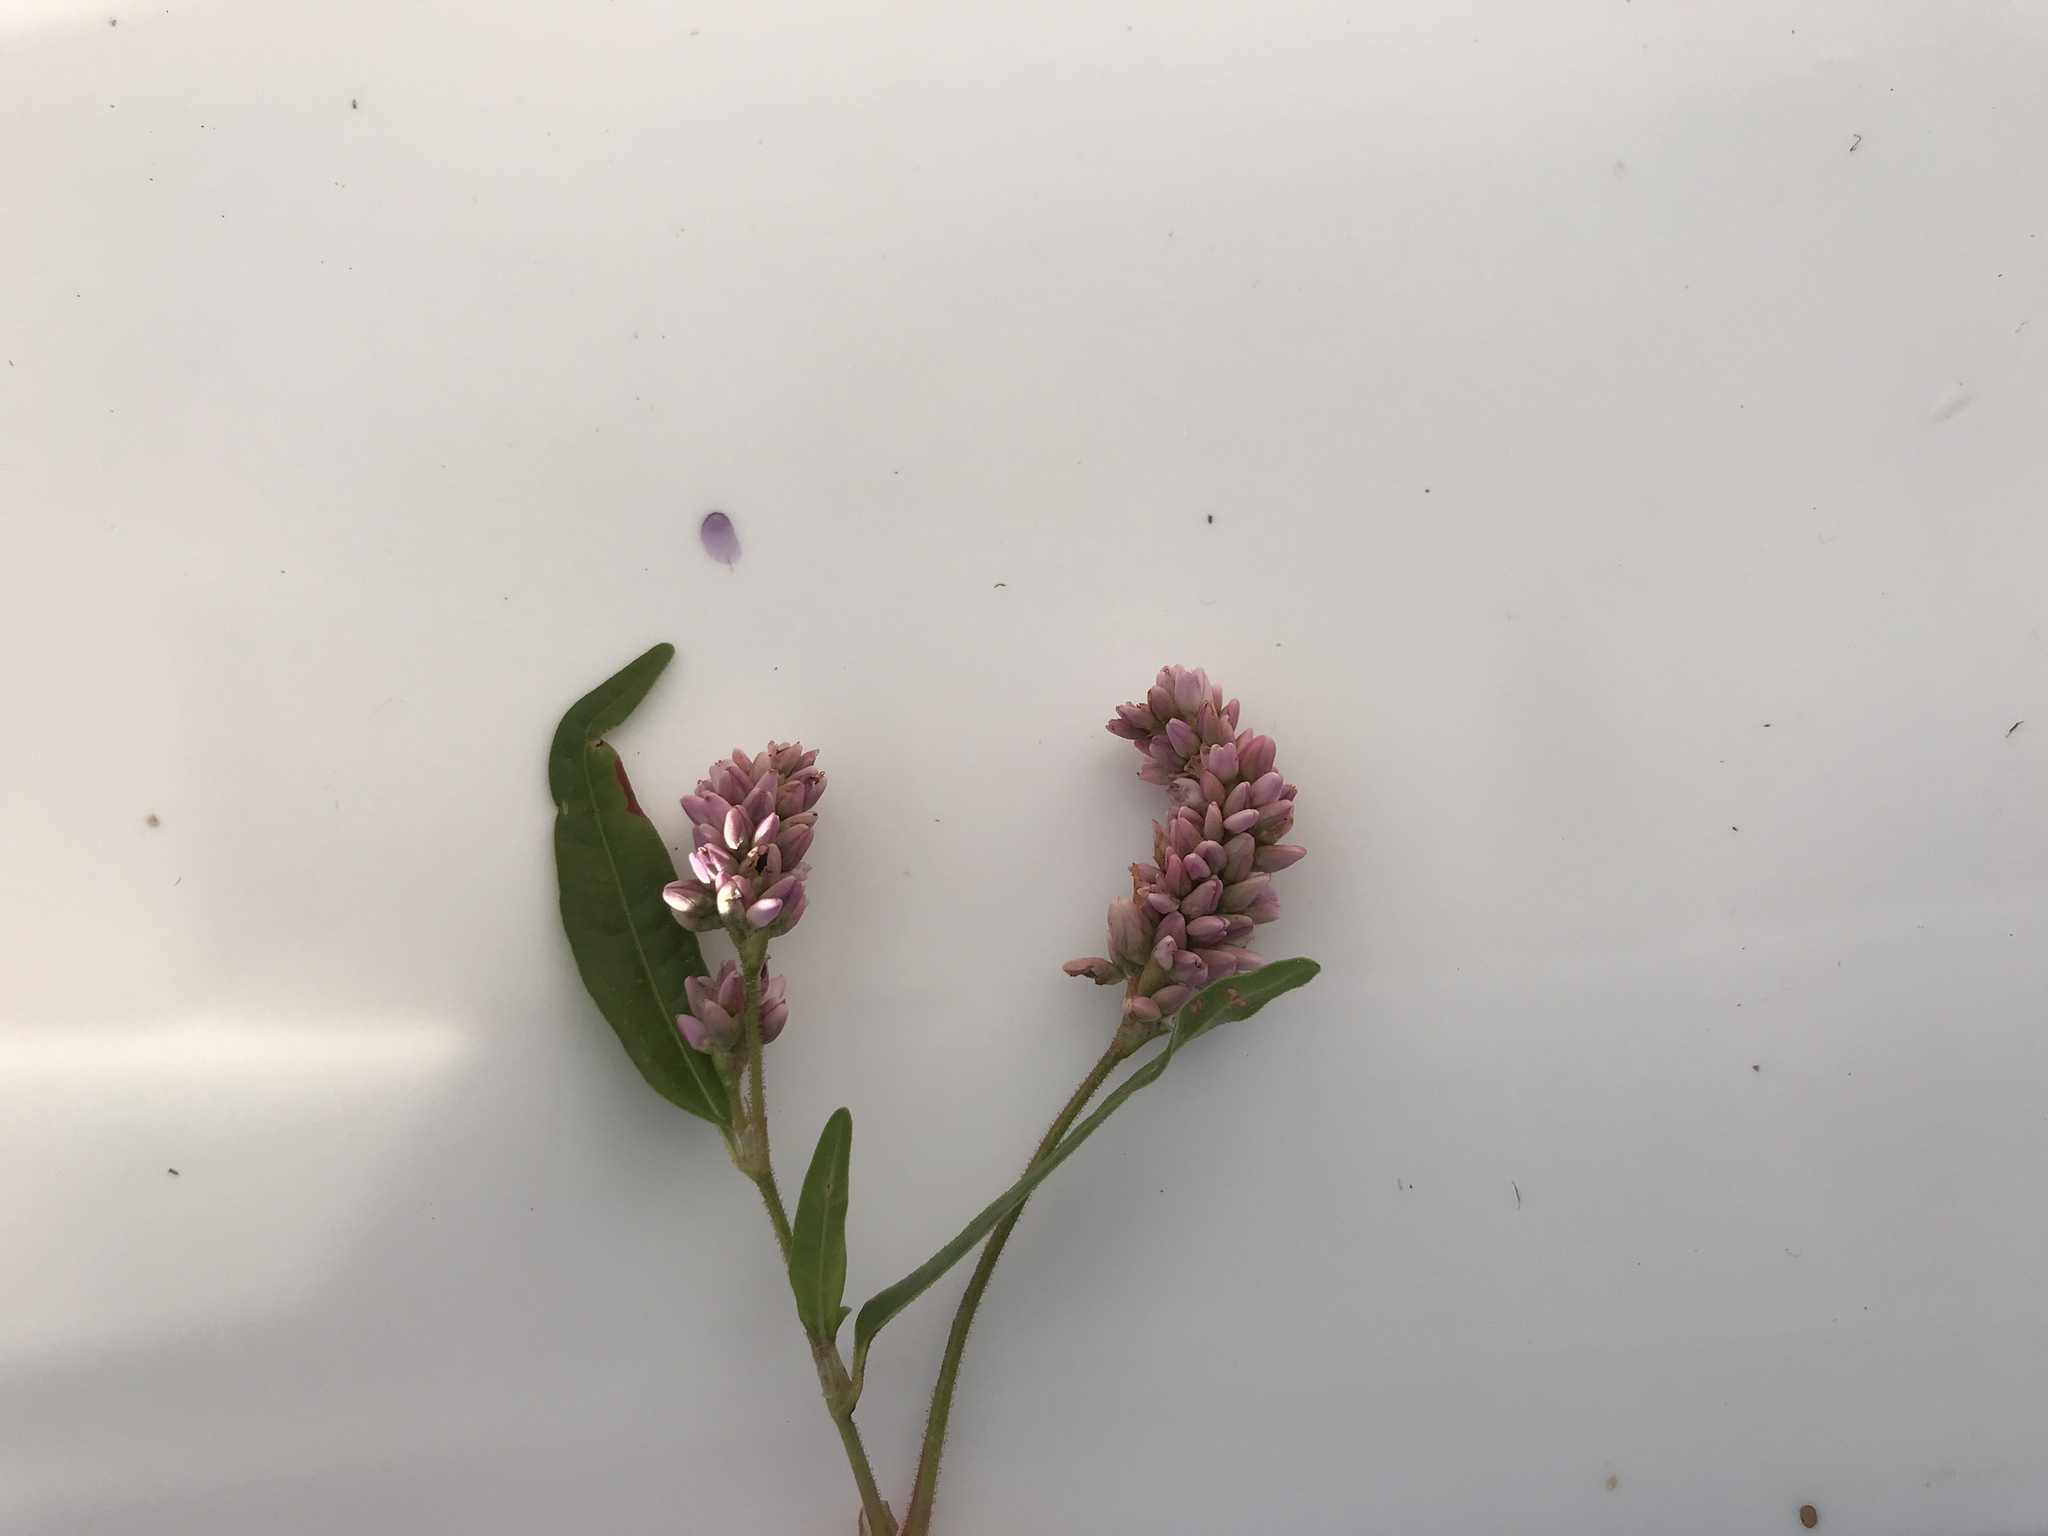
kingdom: Plantae
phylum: Tracheophyta
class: Magnoliopsida
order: Caryophyllales
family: Polygonaceae
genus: Persicaria
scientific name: Persicaria pensylvanica
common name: Pinkweed
